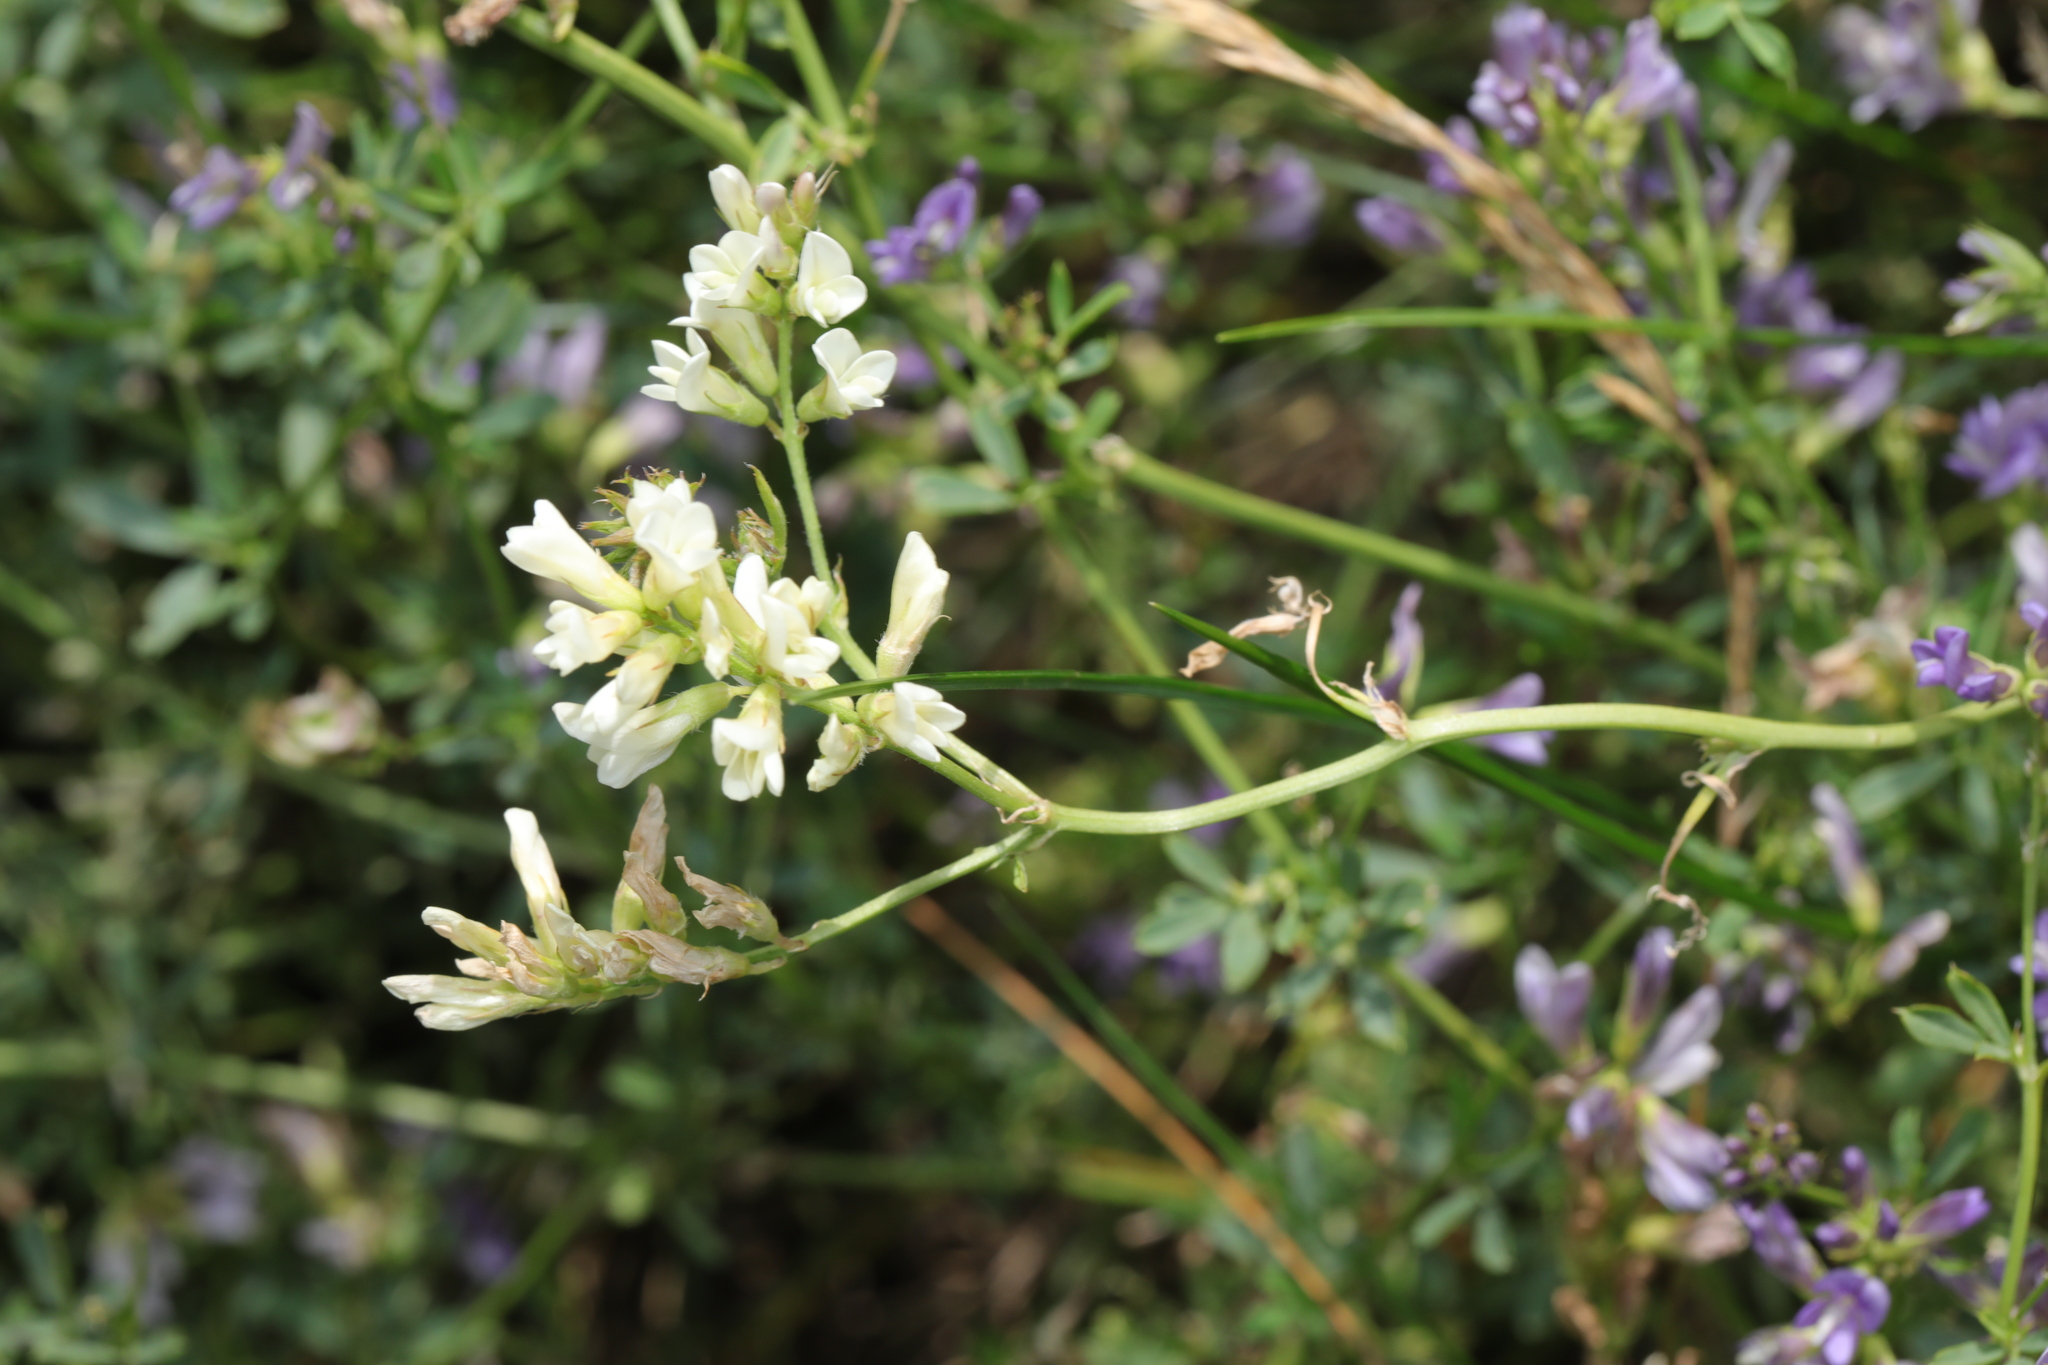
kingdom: Plantae
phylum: Tracheophyta
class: Magnoliopsida
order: Fabales
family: Fabaceae
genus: Medicago
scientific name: Medicago sativa
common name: Alfalfa
